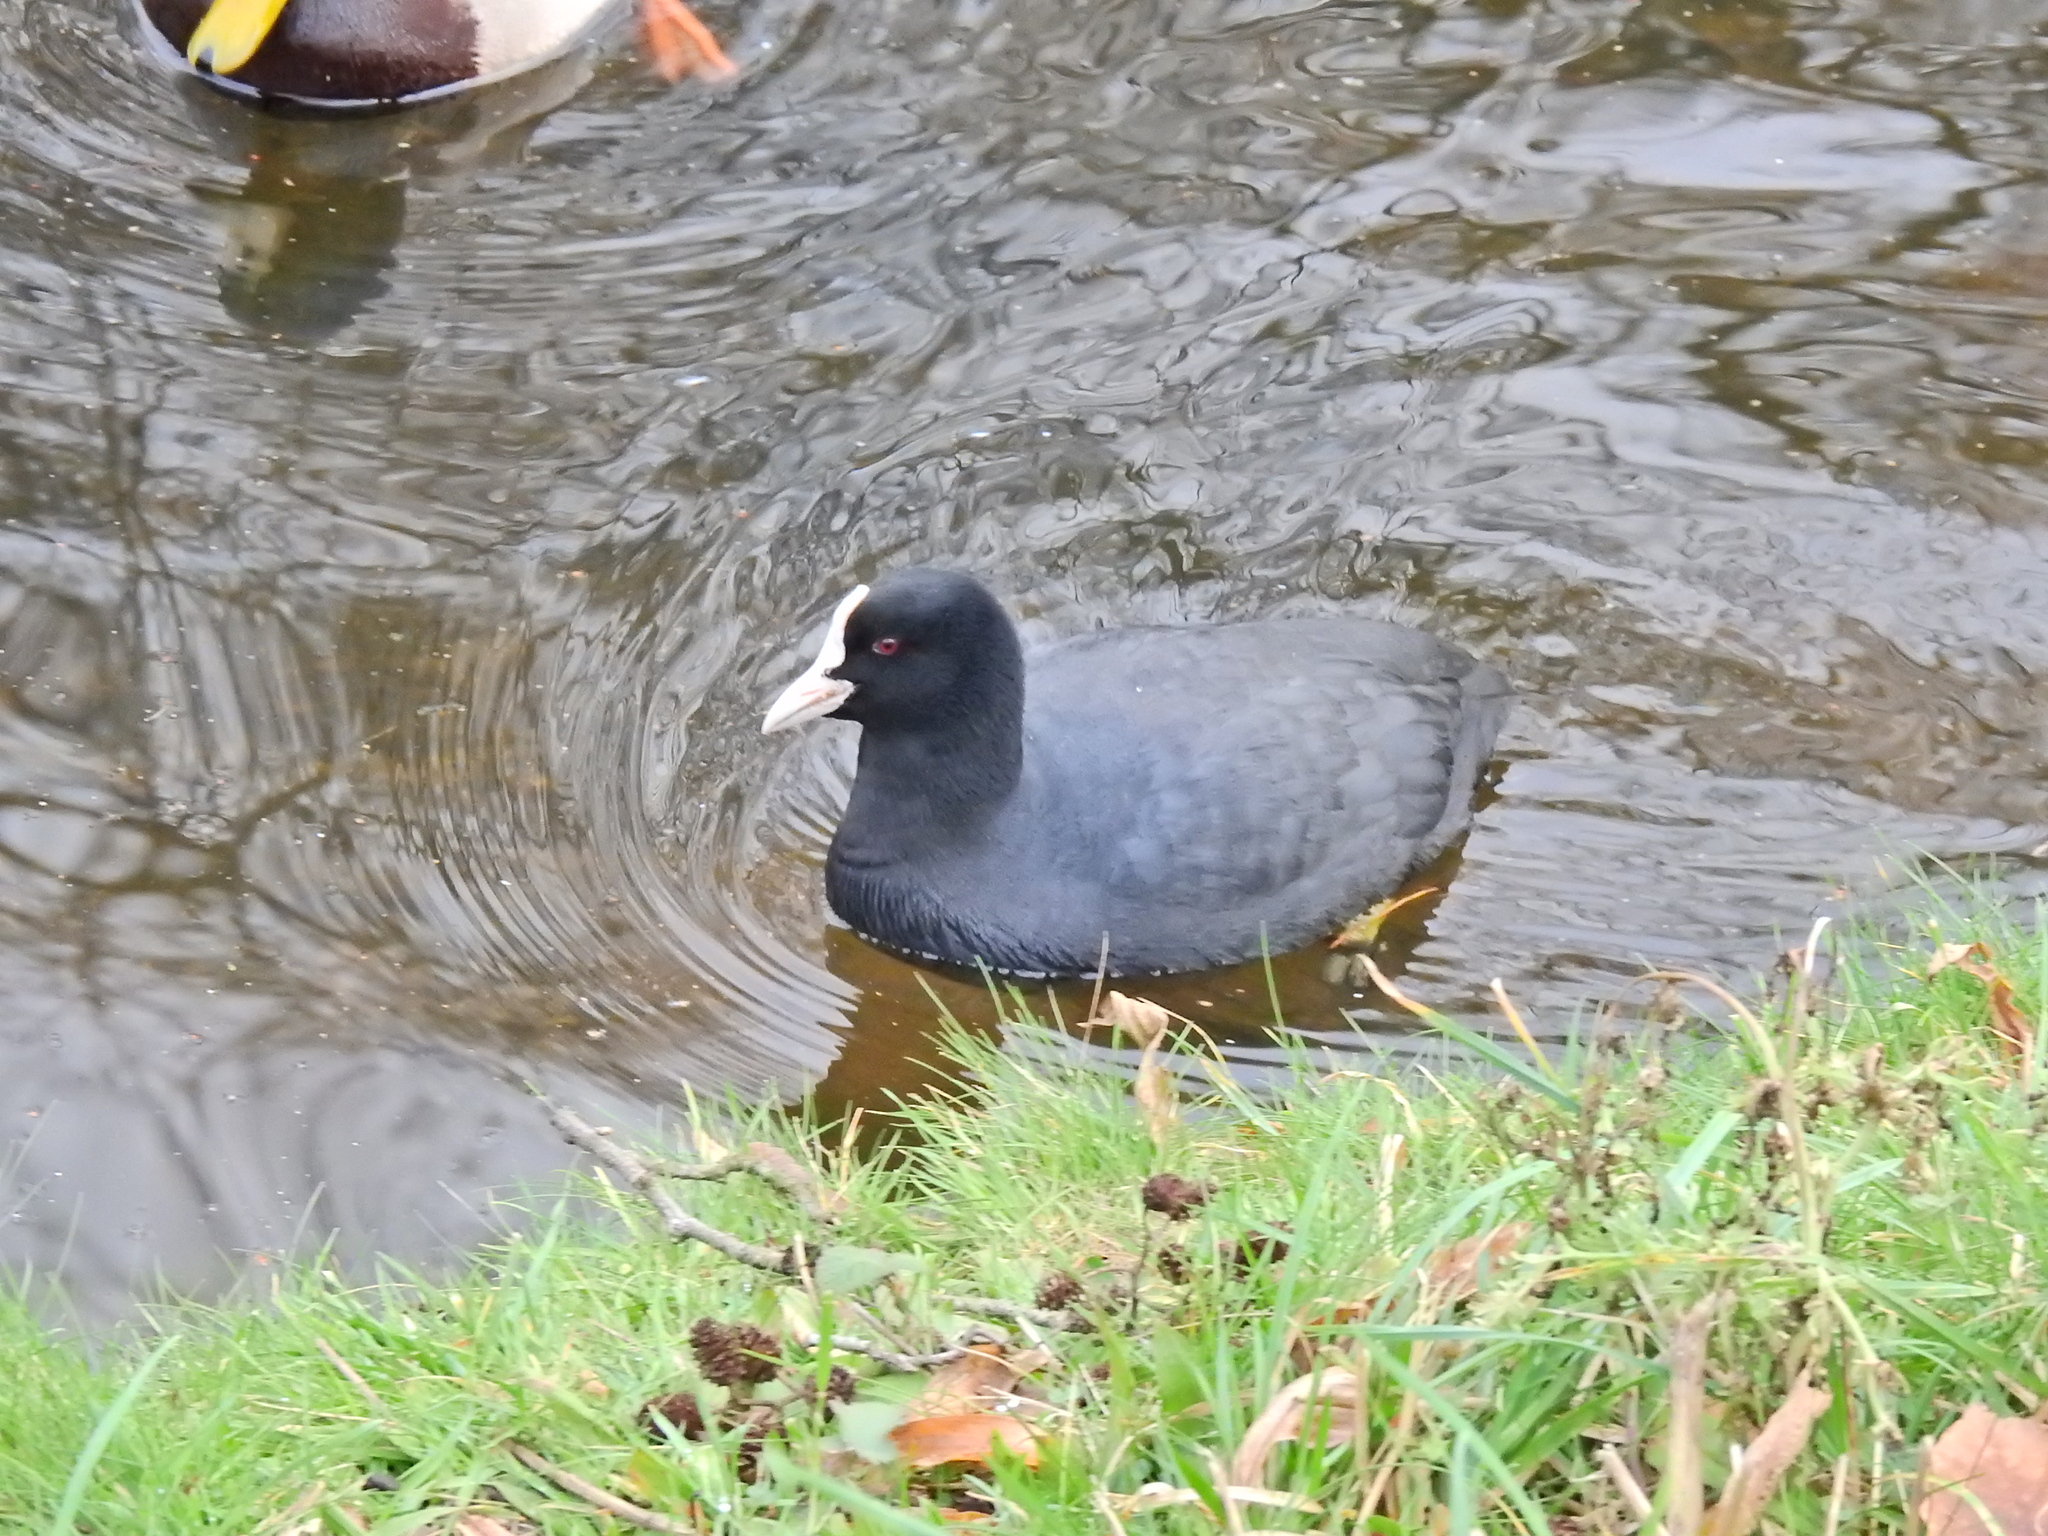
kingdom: Animalia
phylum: Chordata
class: Aves
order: Gruiformes
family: Rallidae
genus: Fulica
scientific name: Fulica atra
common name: Eurasian coot
